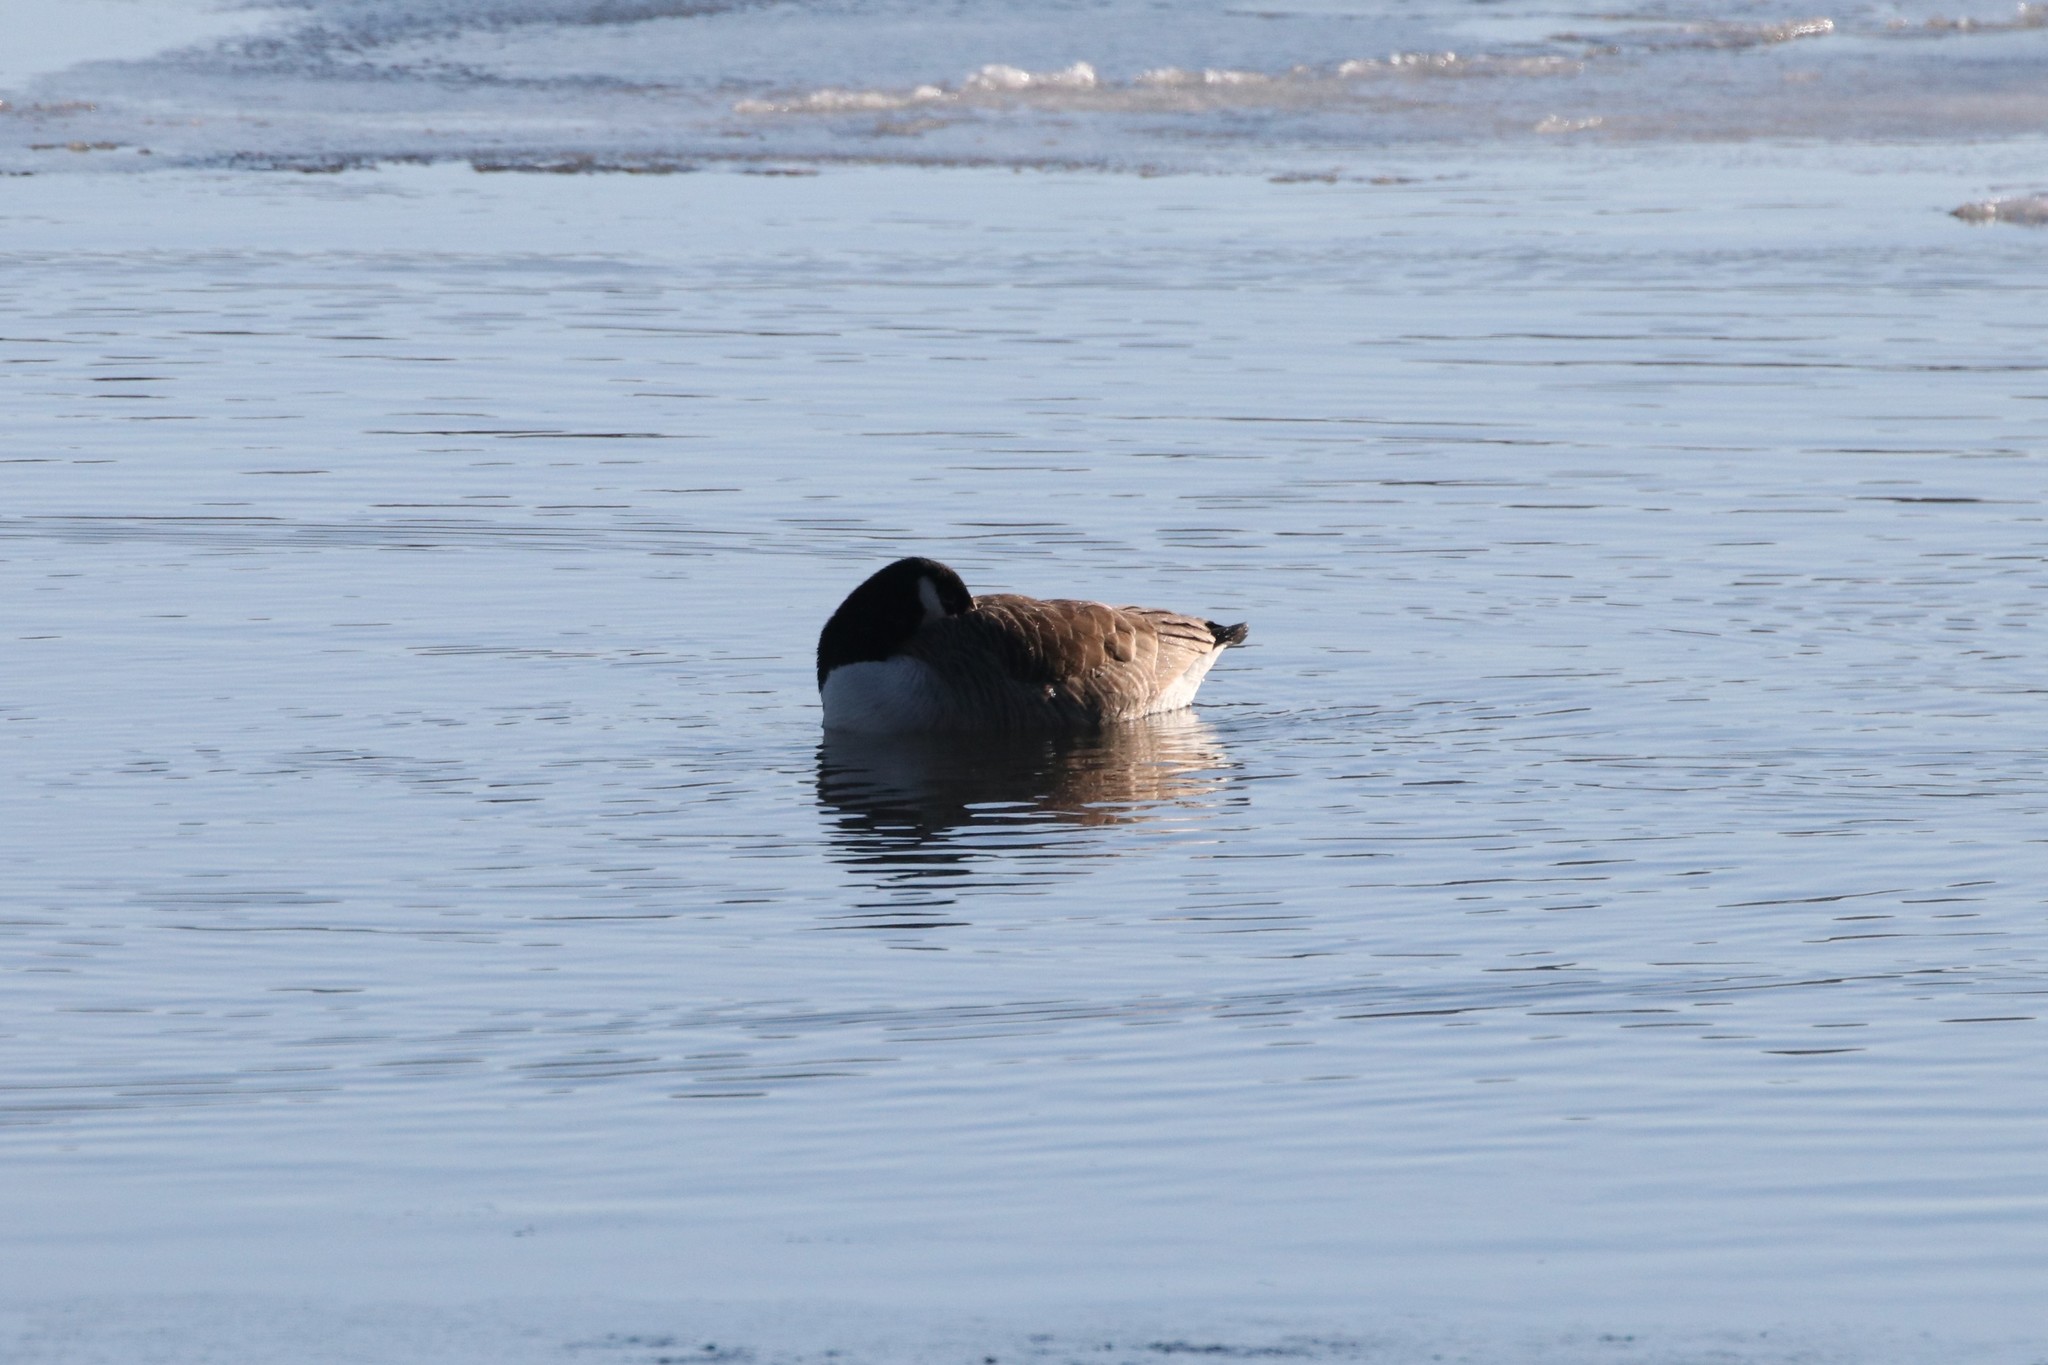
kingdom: Animalia
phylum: Chordata
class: Aves
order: Anseriformes
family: Anatidae
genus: Branta
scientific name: Branta canadensis
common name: Canada goose
